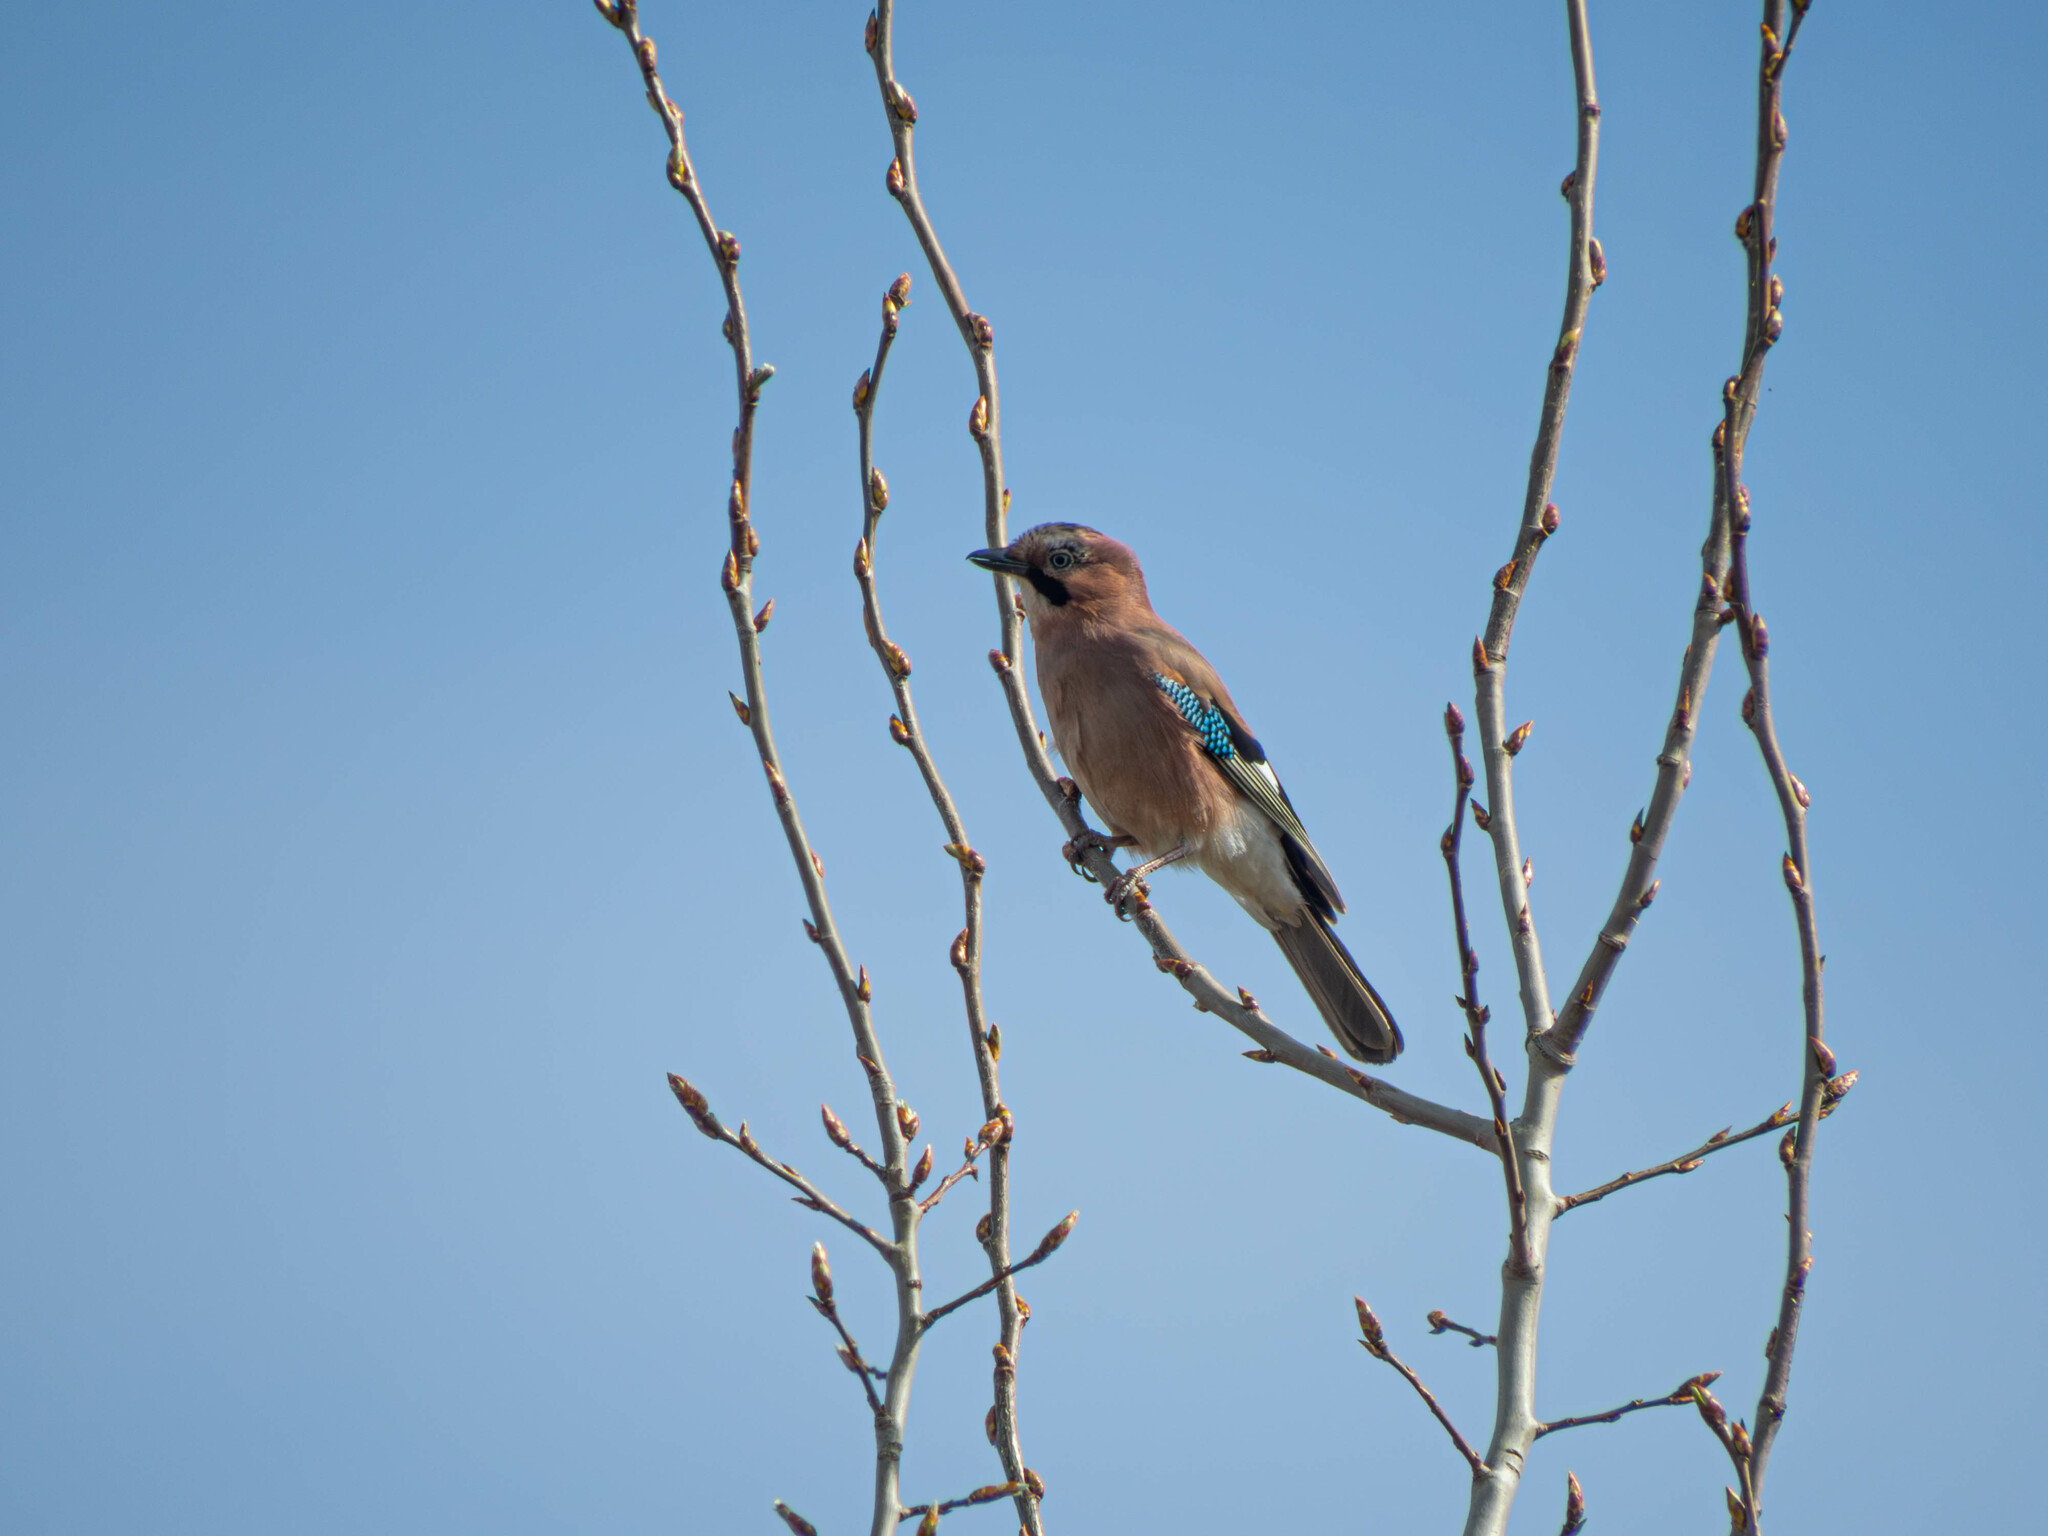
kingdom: Animalia
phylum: Chordata
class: Aves
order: Passeriformes
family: Corvidae
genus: Garrulus
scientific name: Garrulus glandarius
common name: Eurasian jay
